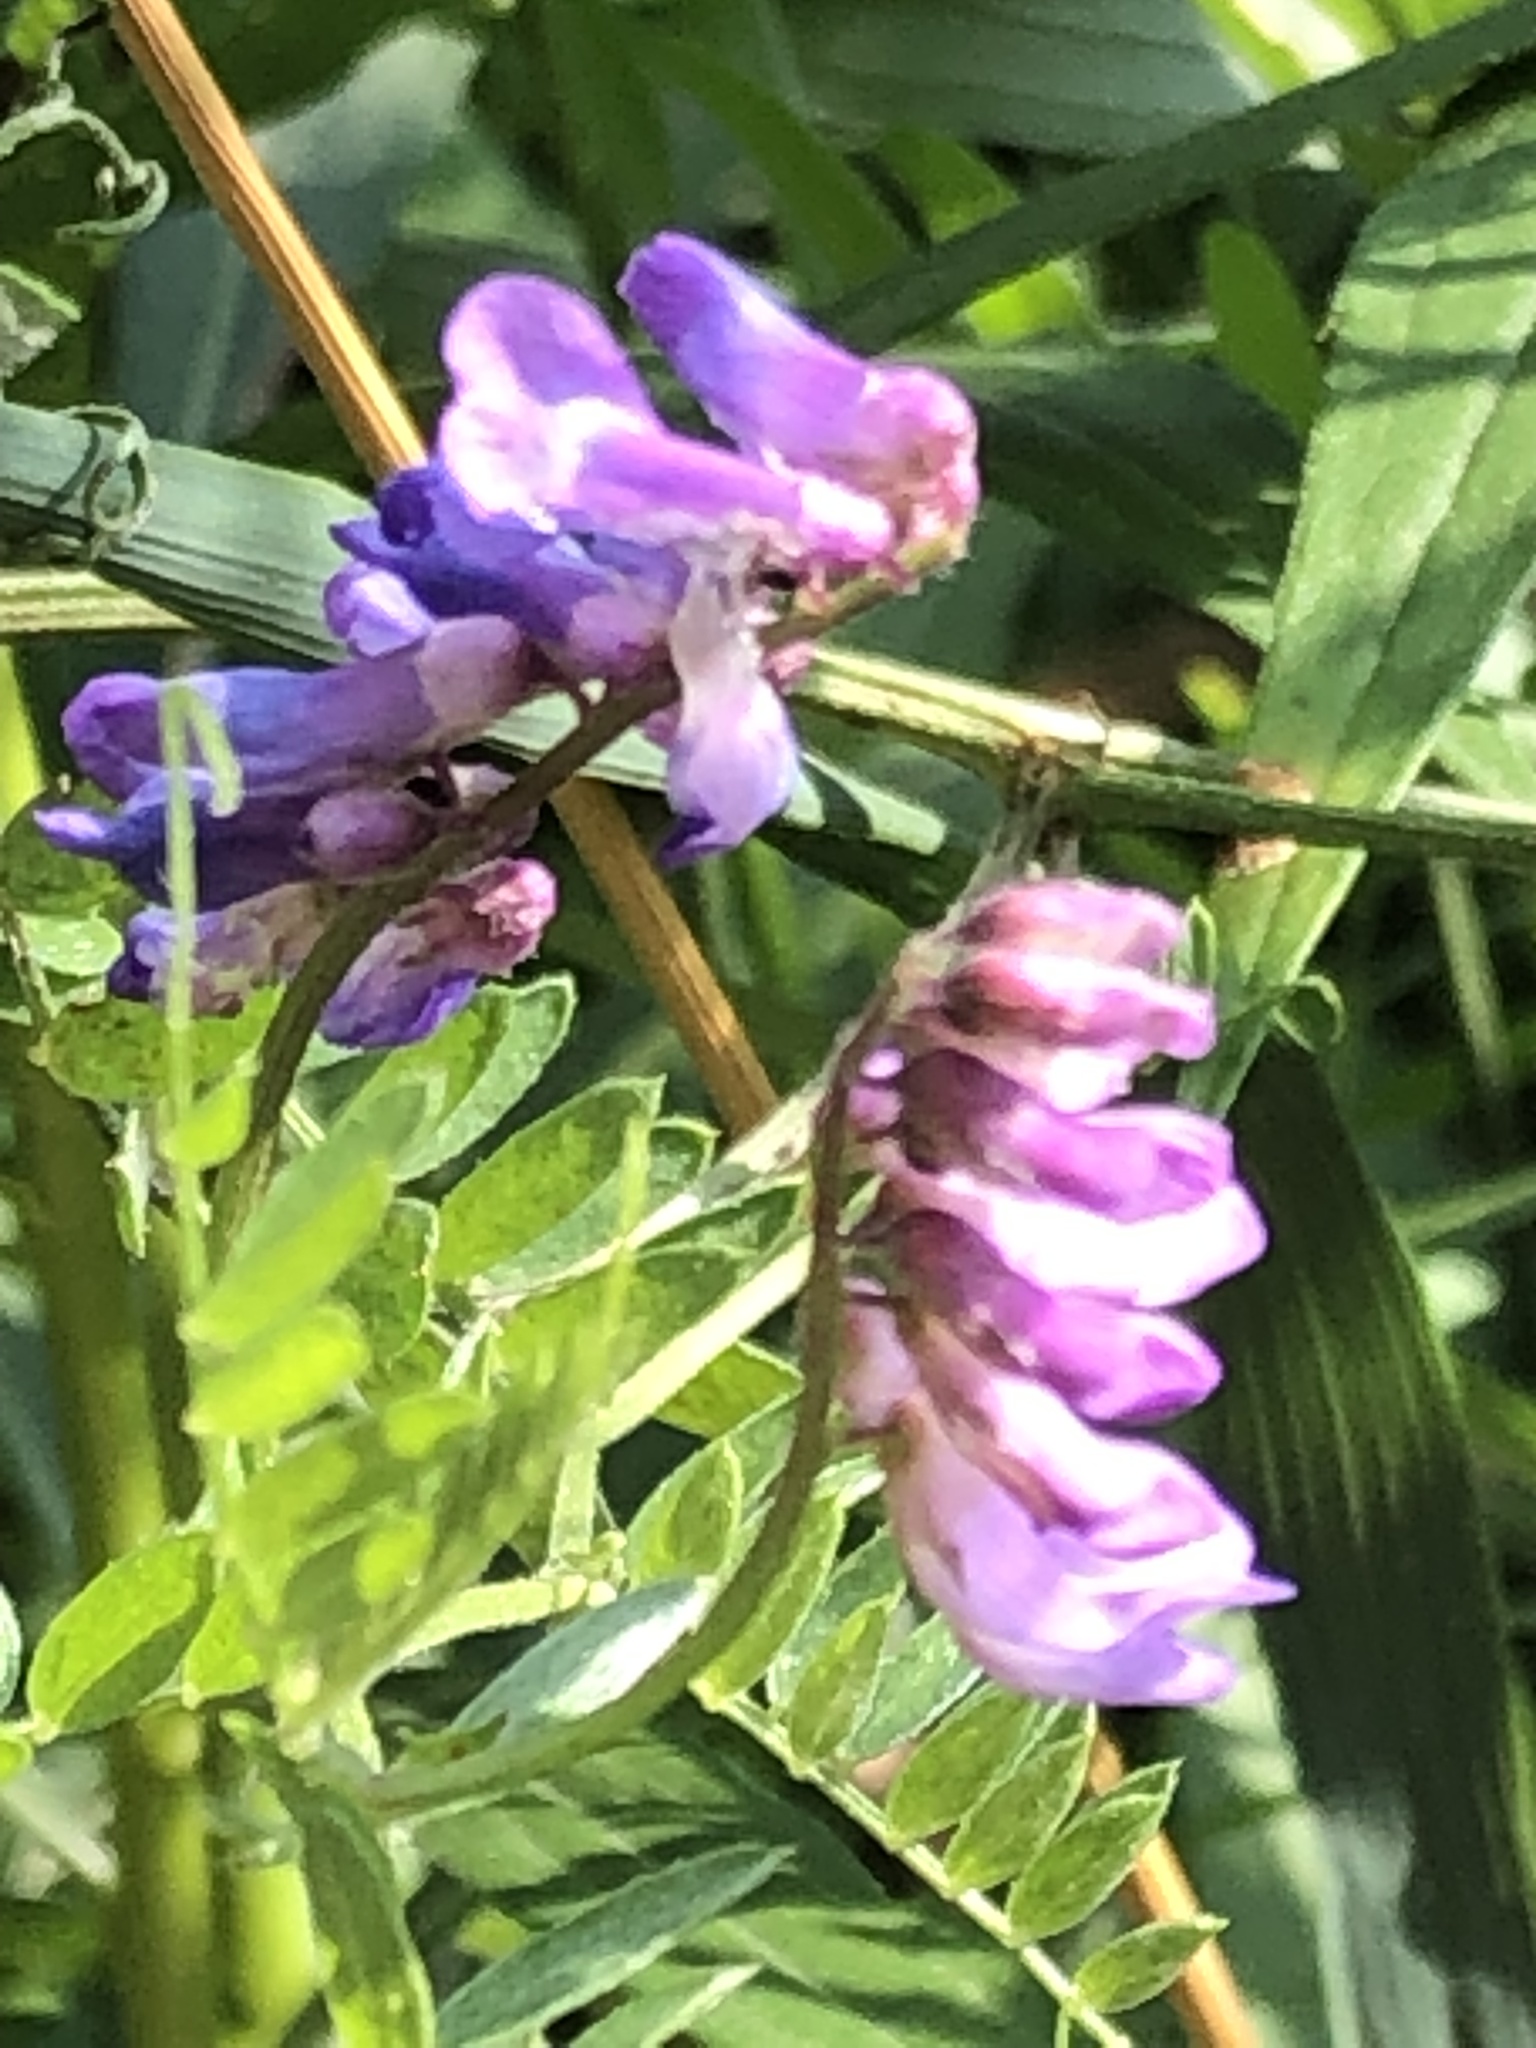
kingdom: Plantae
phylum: Tracheophyta
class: Magnoliopsida
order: Fabales
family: Fabaceae
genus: Vicia
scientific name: Vicia cracca
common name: Bird vetch
